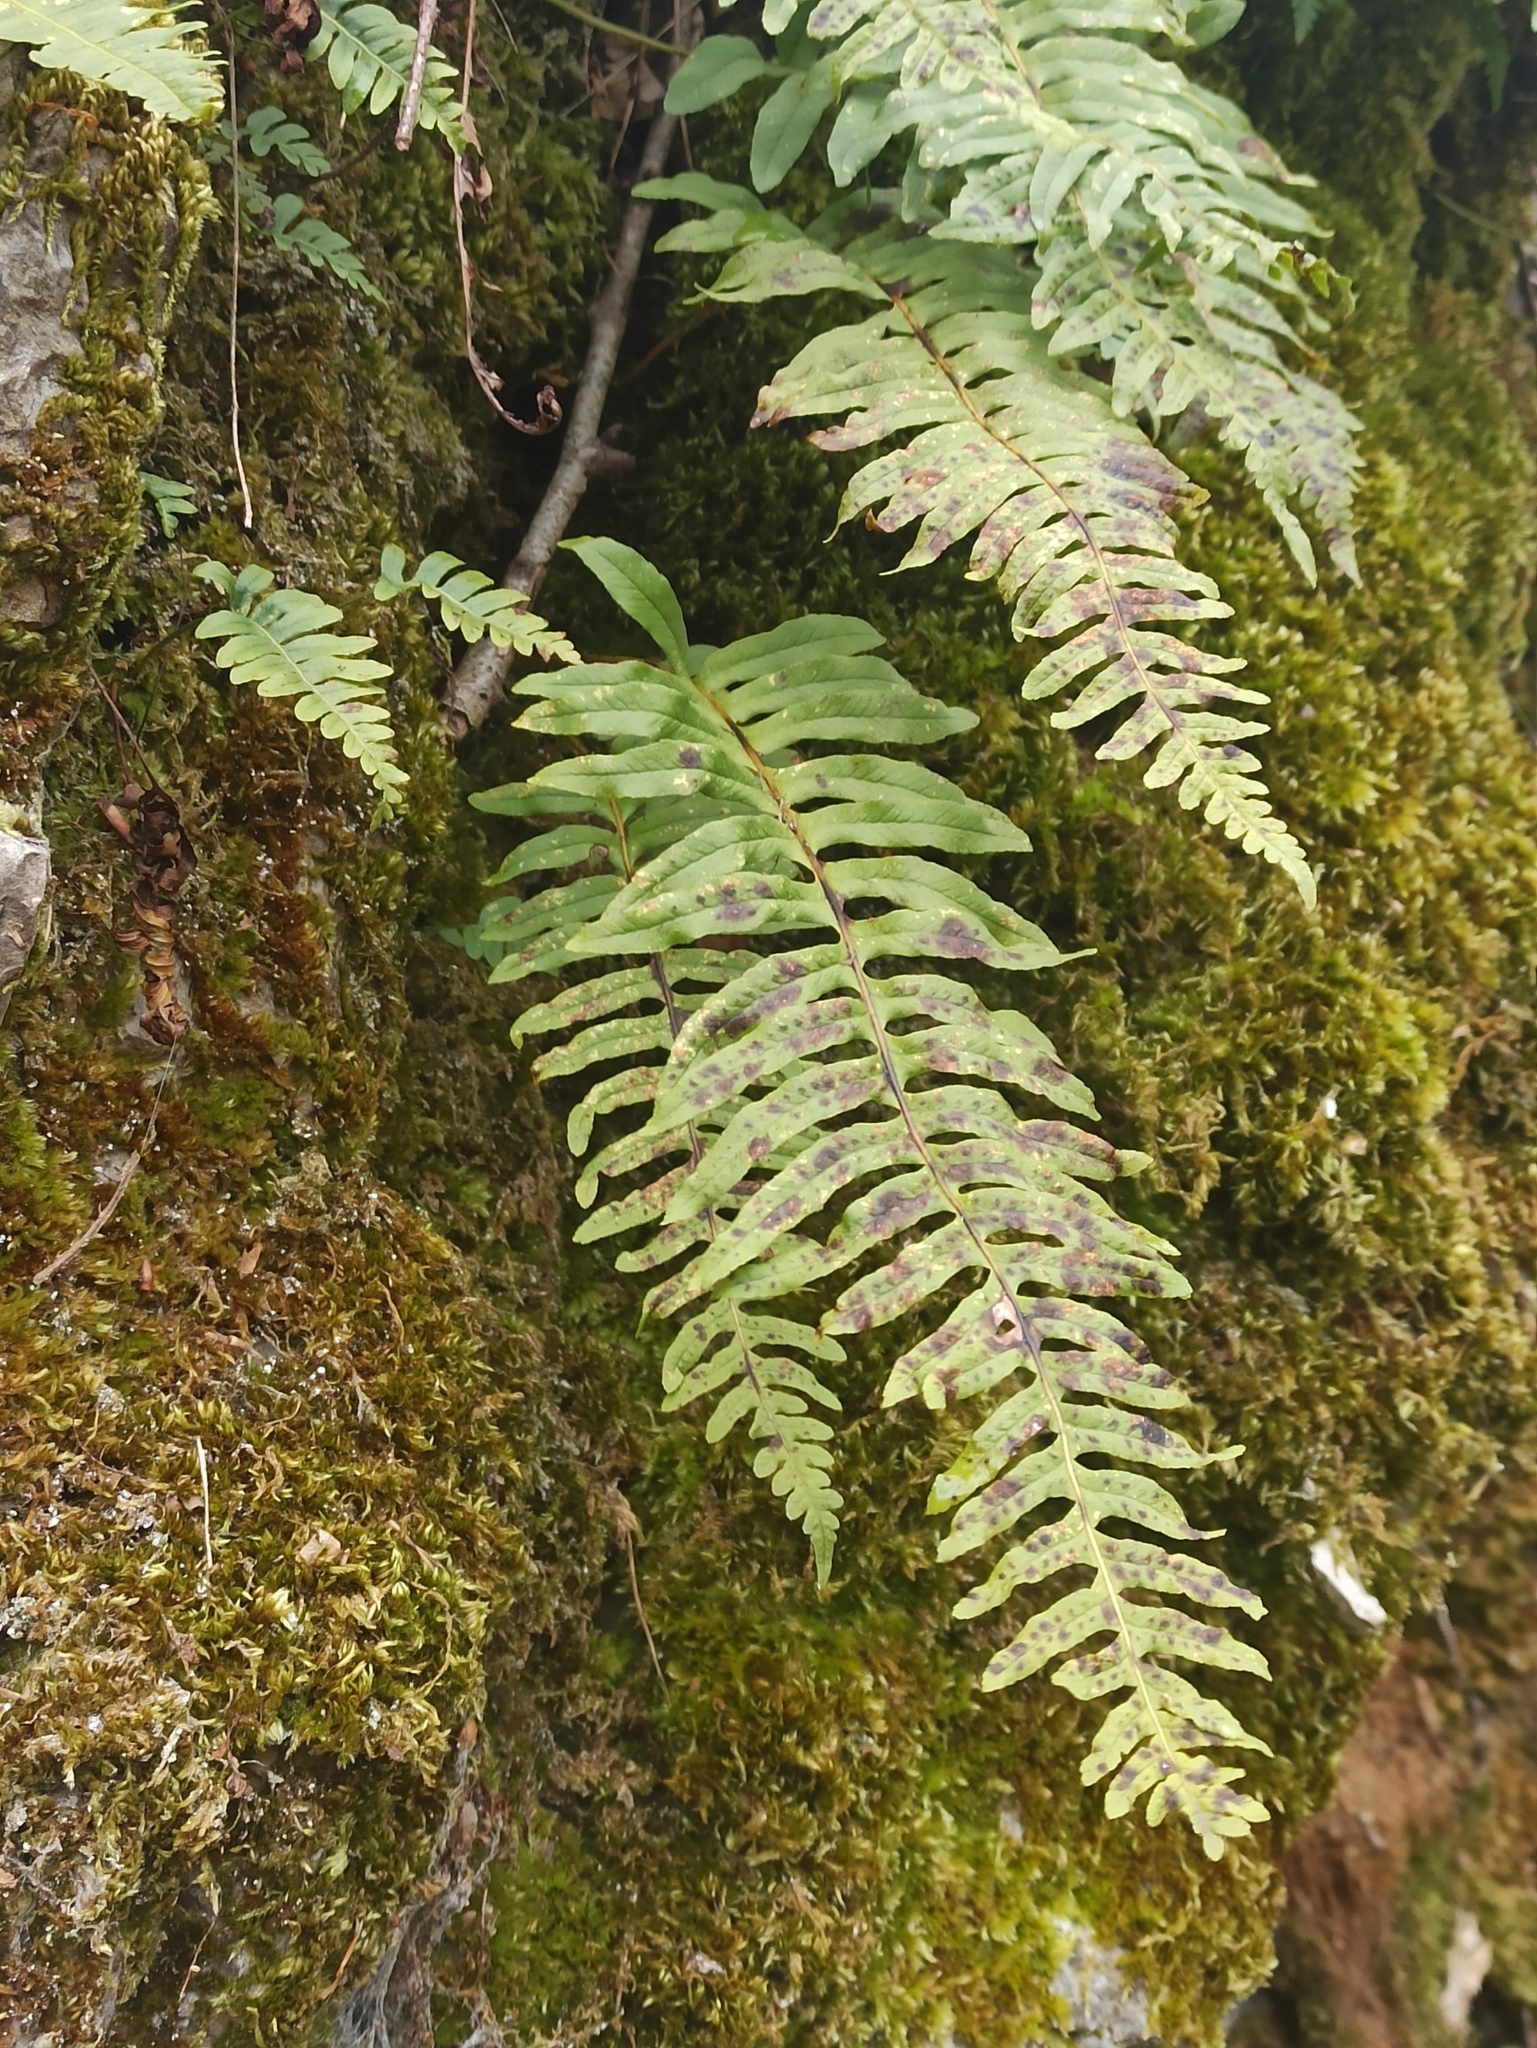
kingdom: Plantae
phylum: Tracheophyta
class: Polypodiopsida
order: Polypodiales
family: Polypodiaceae
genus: Polypodium
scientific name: Polypodium vulgare
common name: Common polypody
